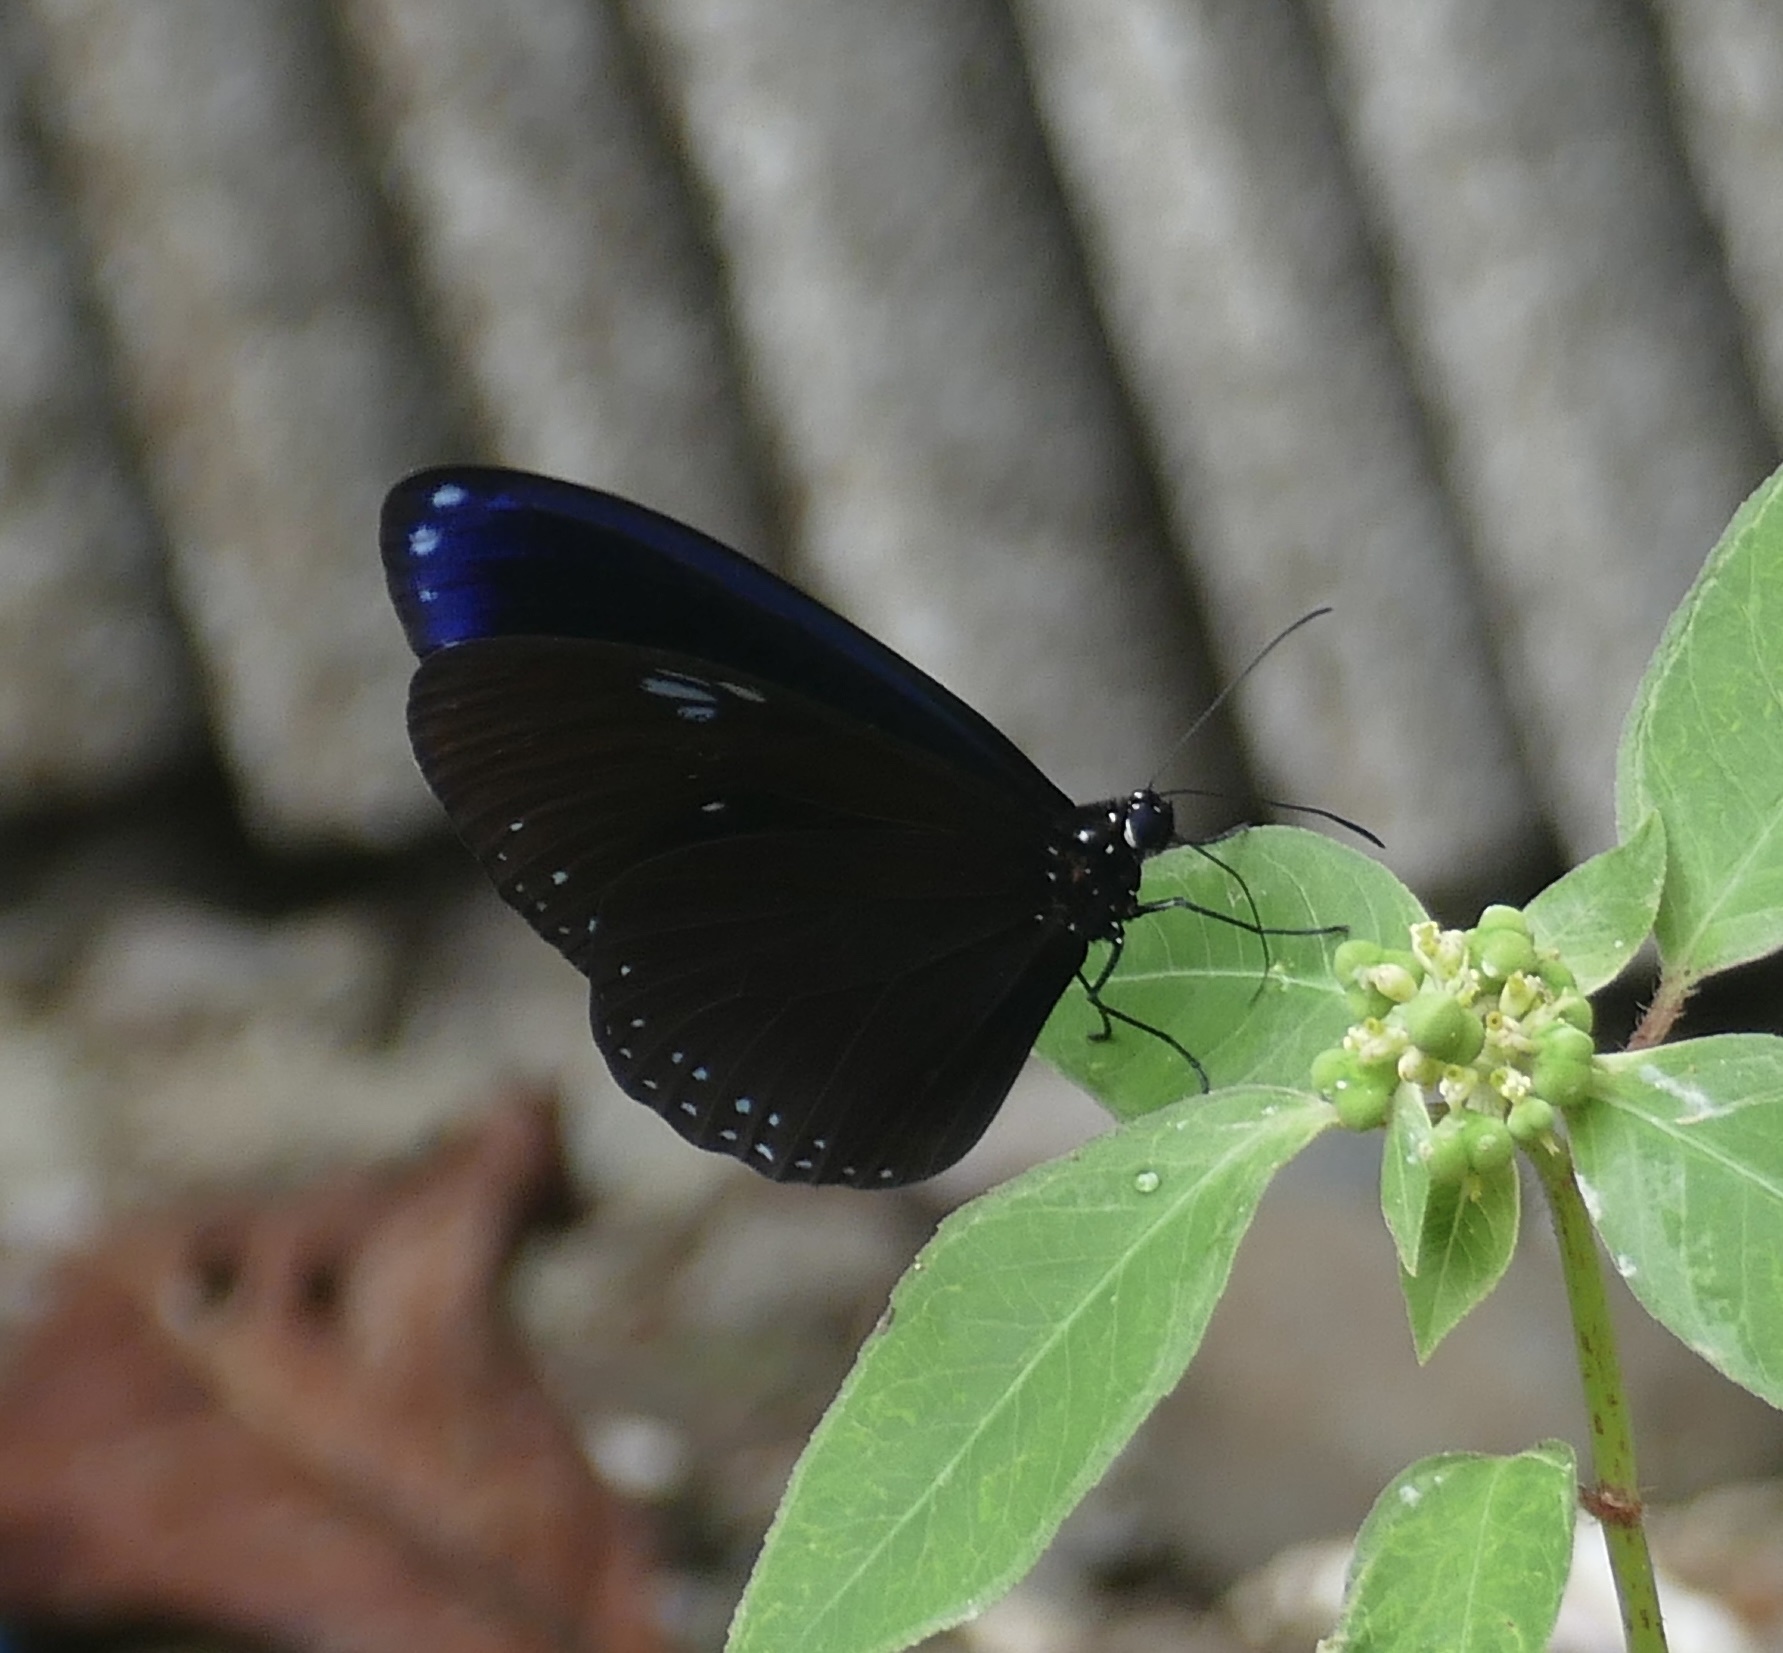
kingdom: Animalia
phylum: Arthropoda
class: Insecta
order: Lepidoptera
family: Nymphalidae
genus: Euploea
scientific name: Euploea configurata
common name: Sulawesi striped blue crow
